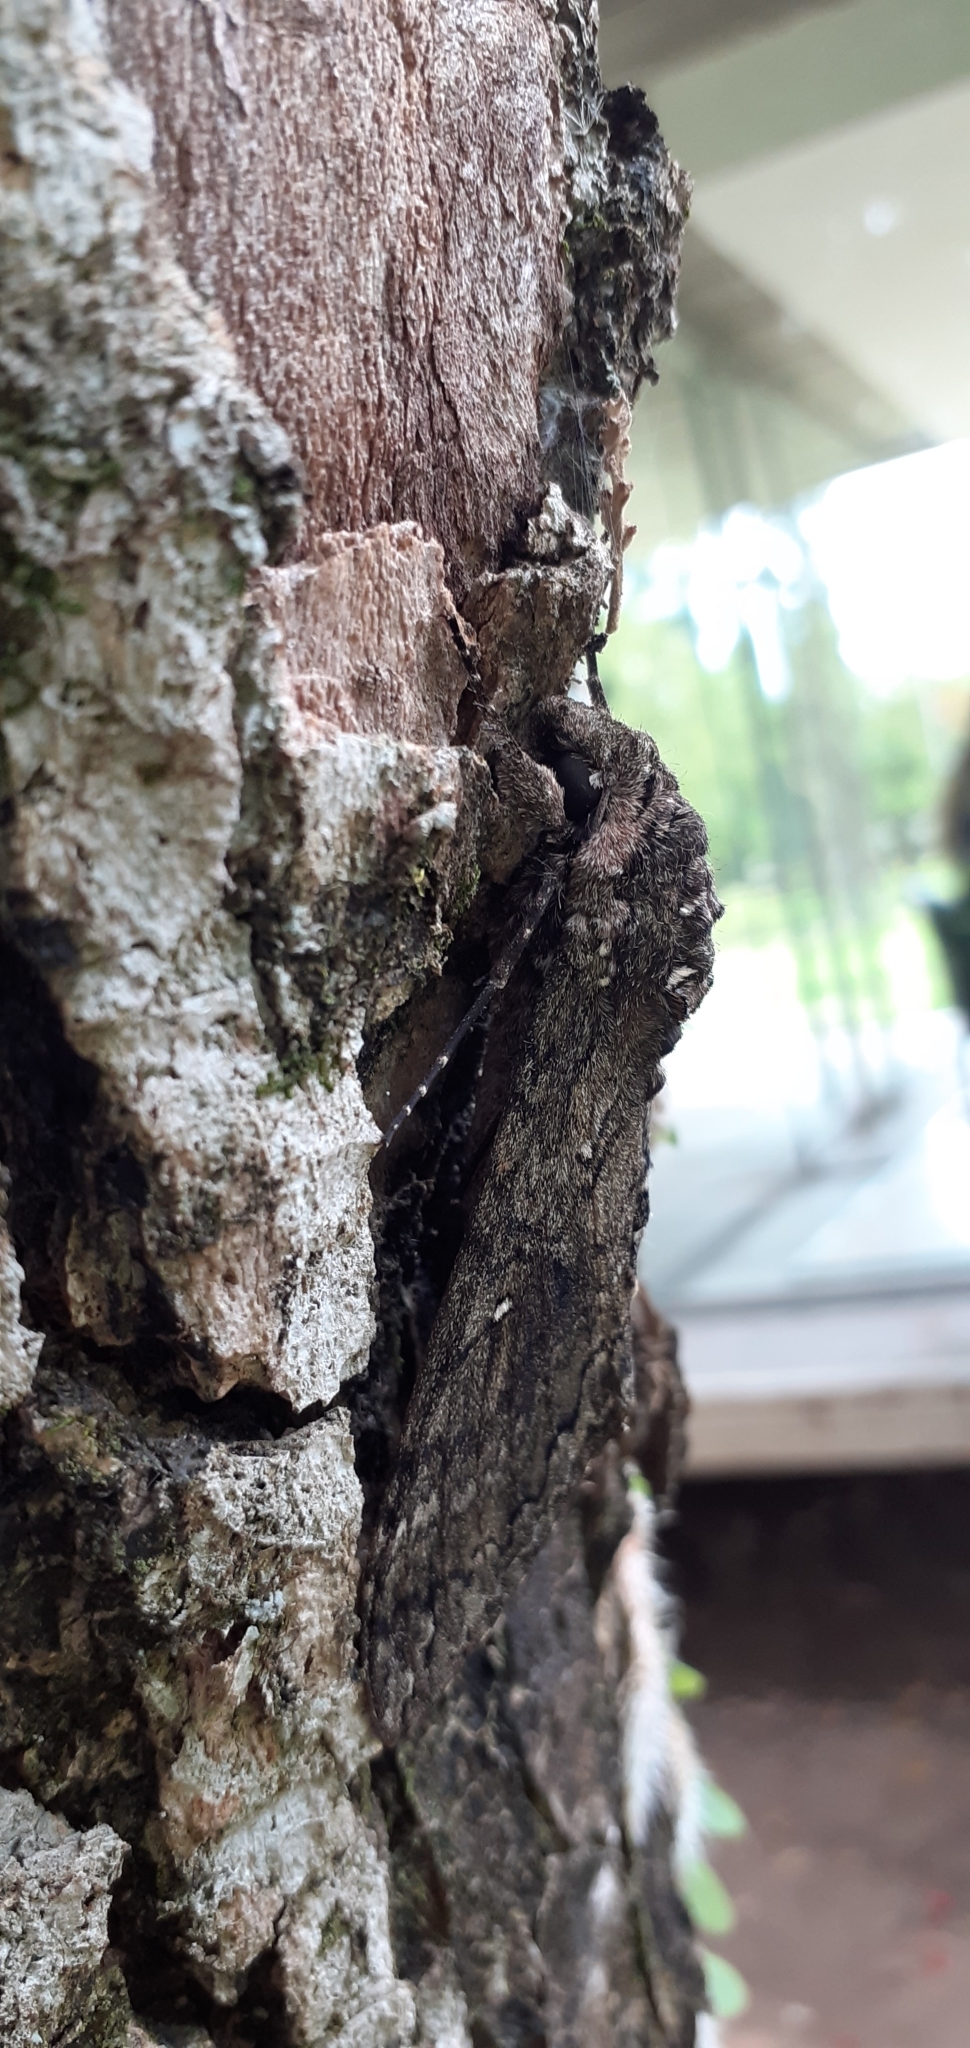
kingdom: Animalia
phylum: Arthropoda
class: Insecta
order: Lepidoptera
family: Sphingidae
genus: Manduca
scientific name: Manduca afflicta
